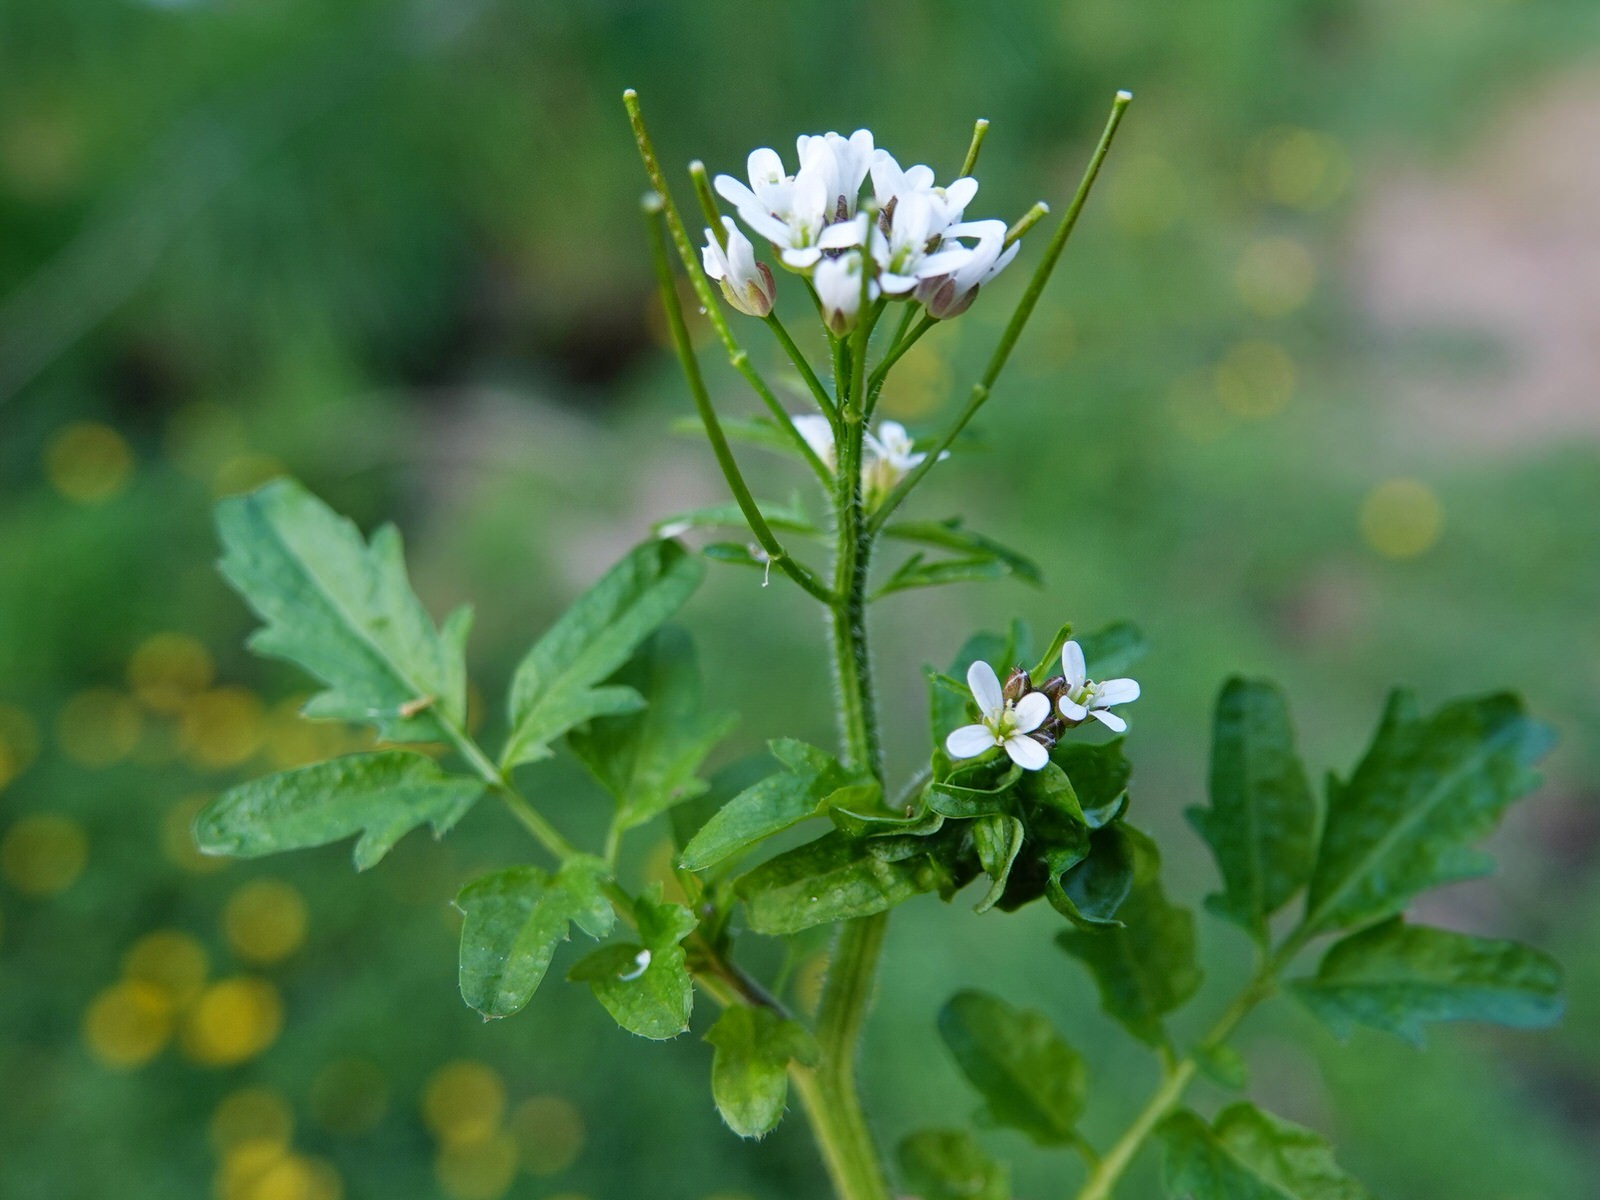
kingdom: Plantae
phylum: Tracheophyta
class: Magnoliopsida
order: Brassicales
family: Brassicaceae
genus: Cardamine
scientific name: Cardamine flexuosa
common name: Woodland bittercress
